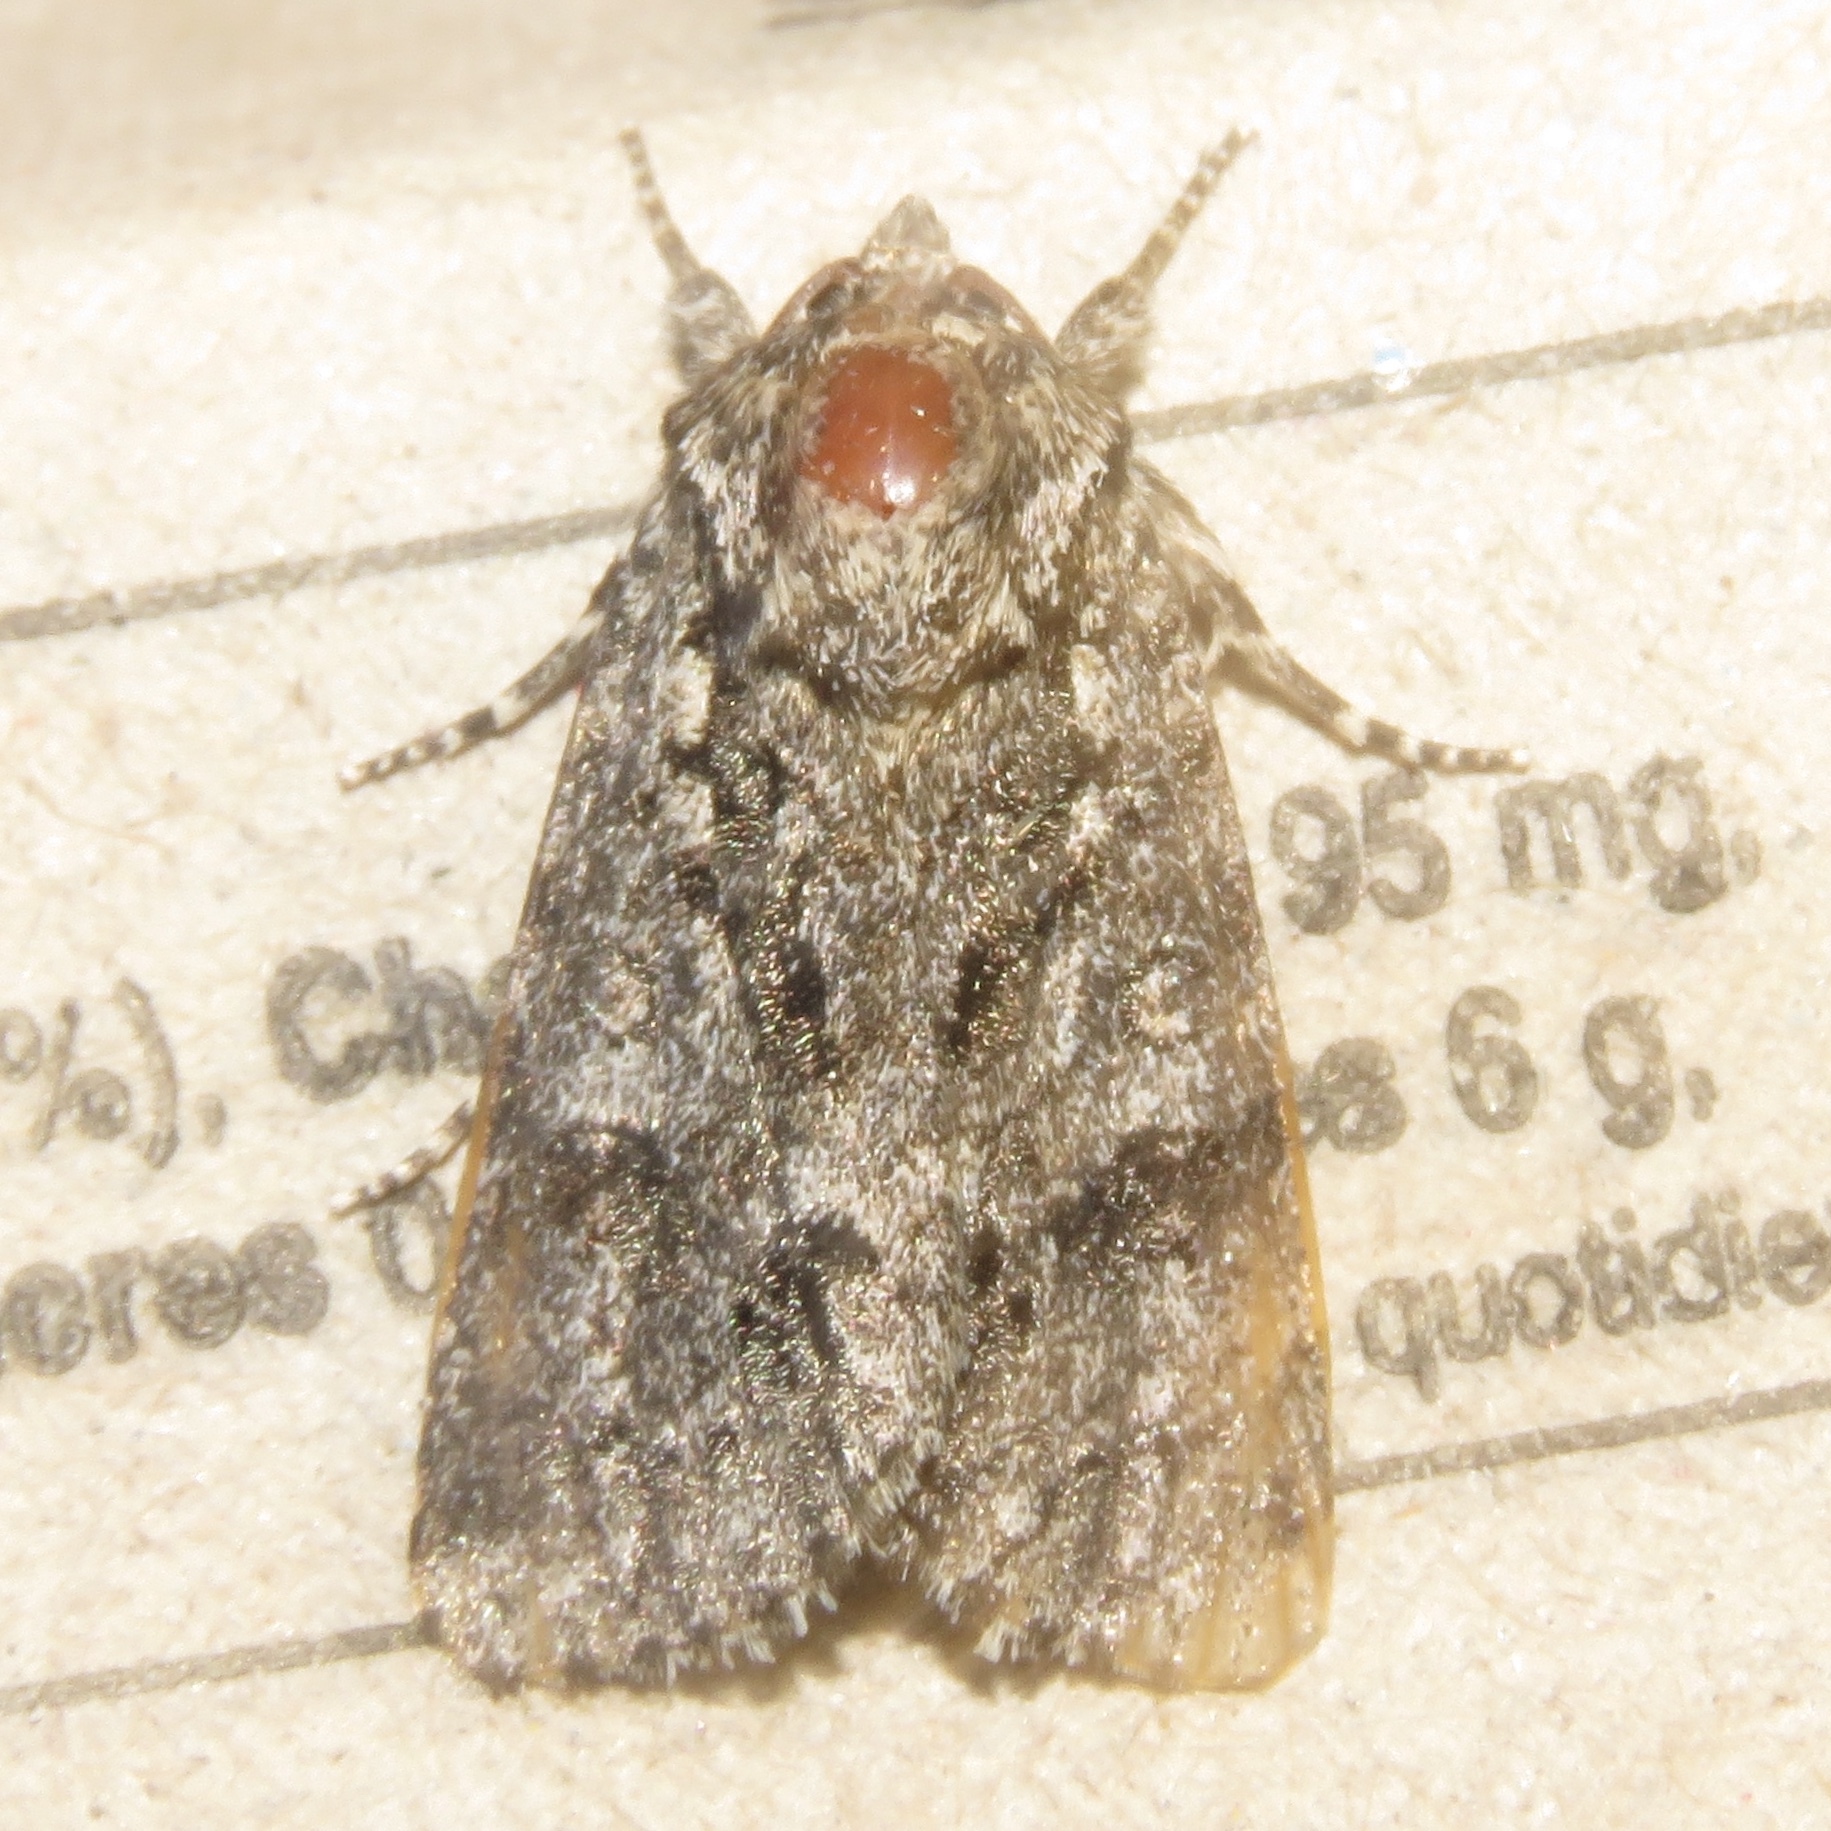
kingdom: Animalia
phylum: Arthropoda
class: Insecta
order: Lepidoptera
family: Noctuidae
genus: Acronicta
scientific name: Acronicta impressa
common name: Impressed dagger
